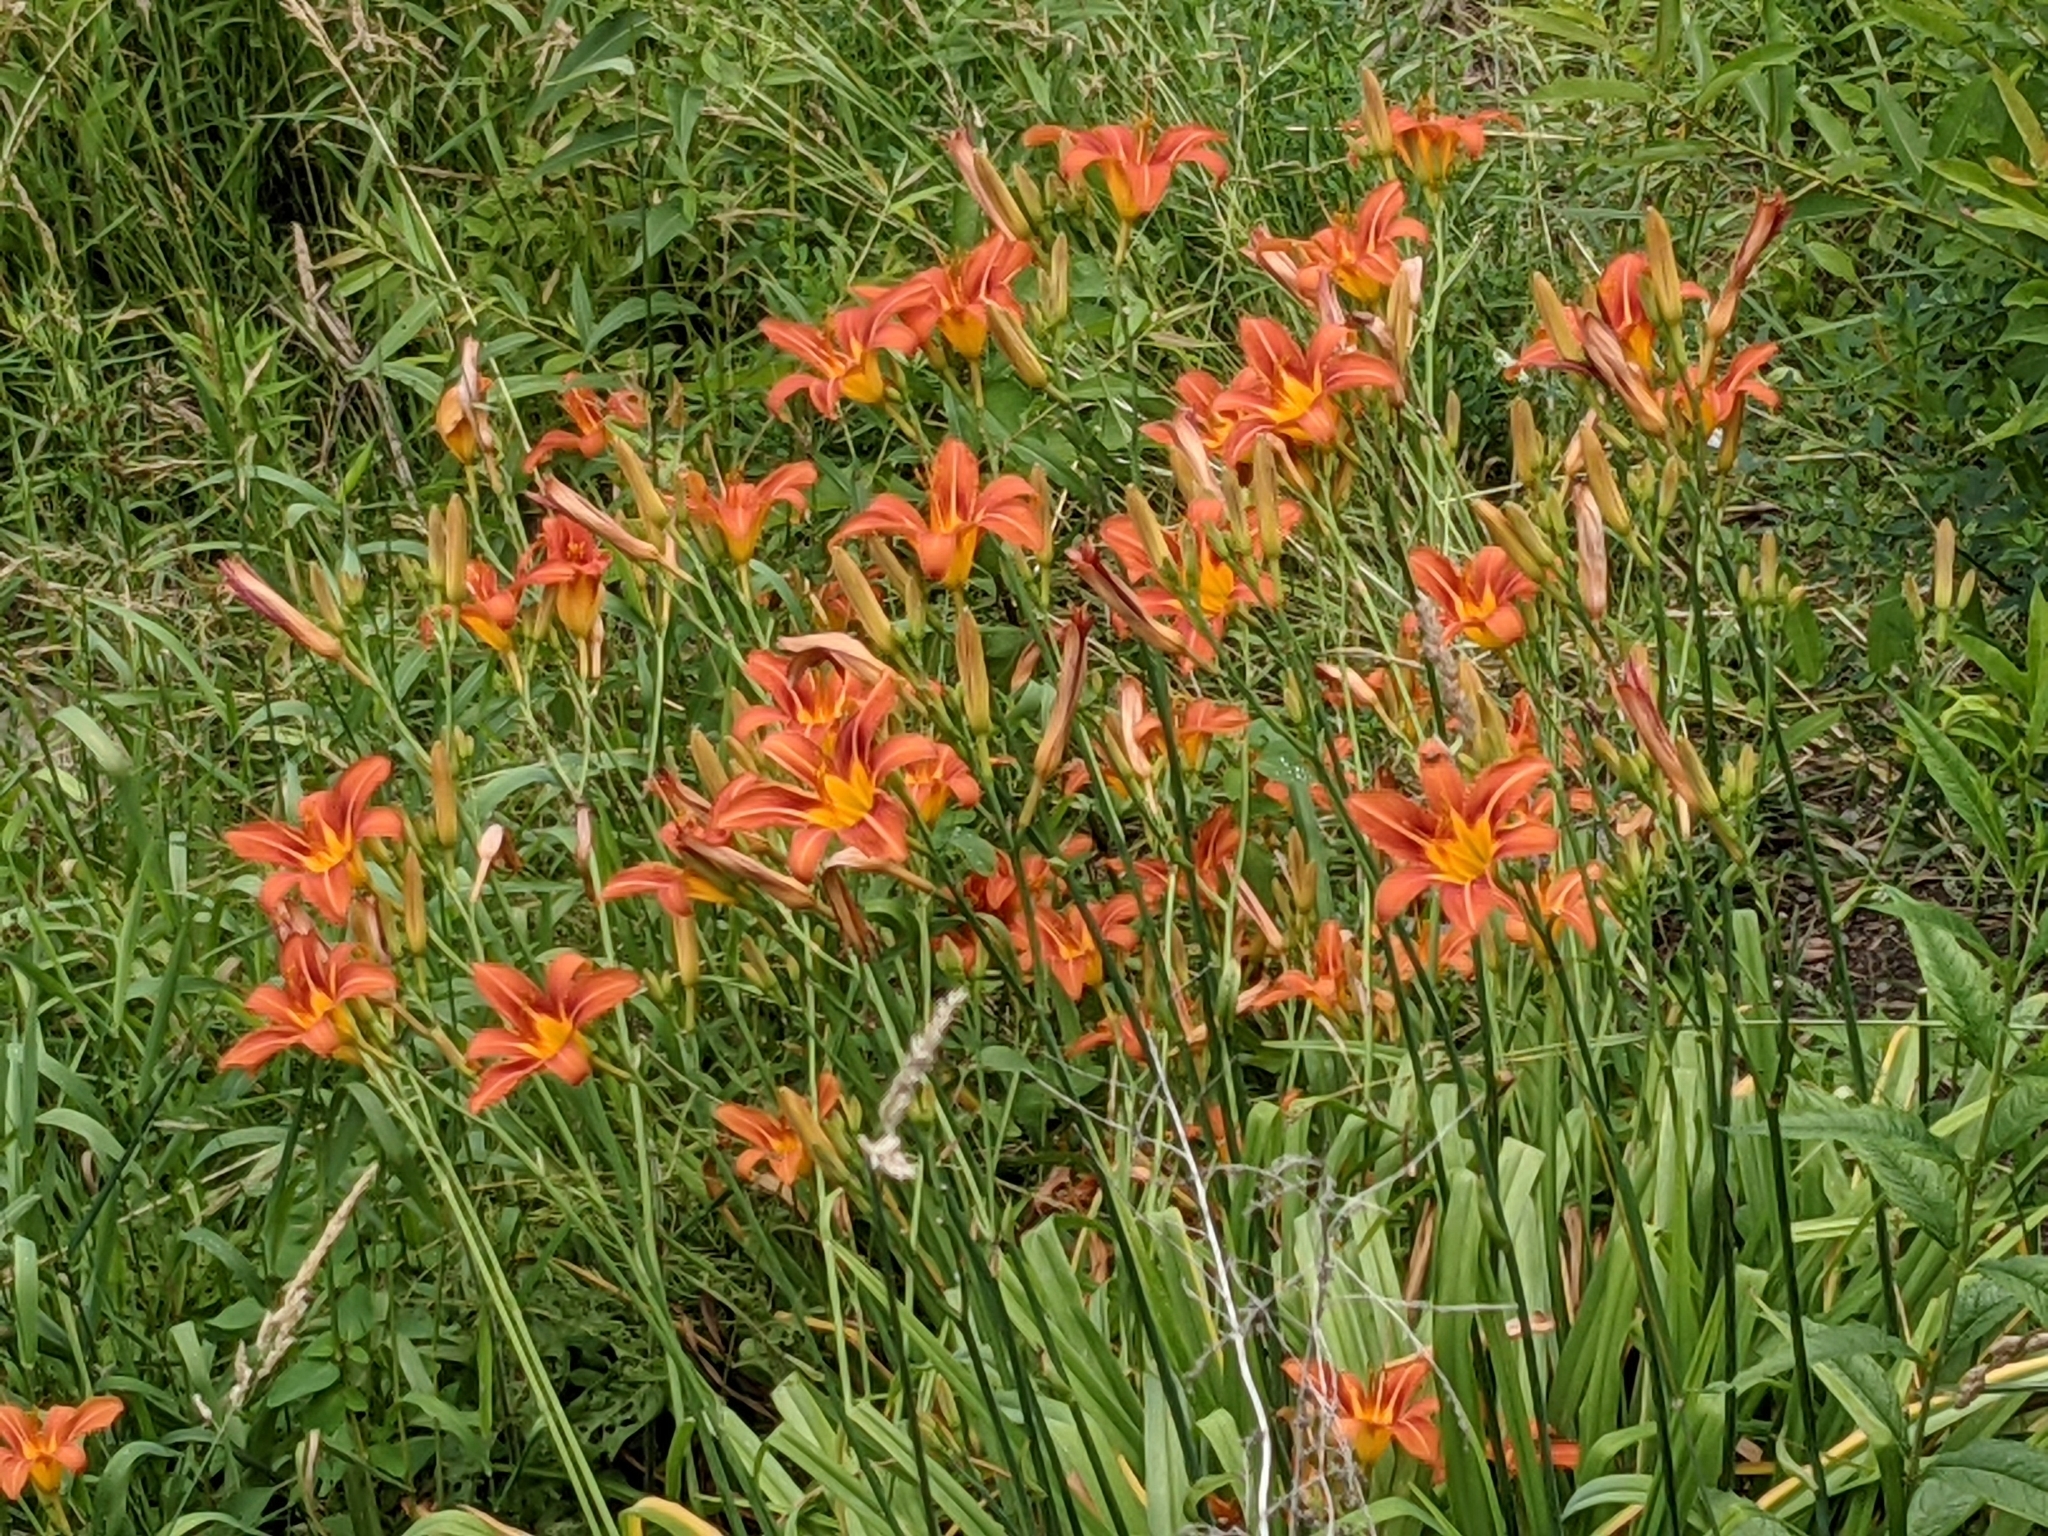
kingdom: Plantae
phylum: Tracheophyta
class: Liliopsida
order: Asparagales
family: Asphodelaceae
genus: Hemerocallis
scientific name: Hemerocallis fulva
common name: Orange day-lily
